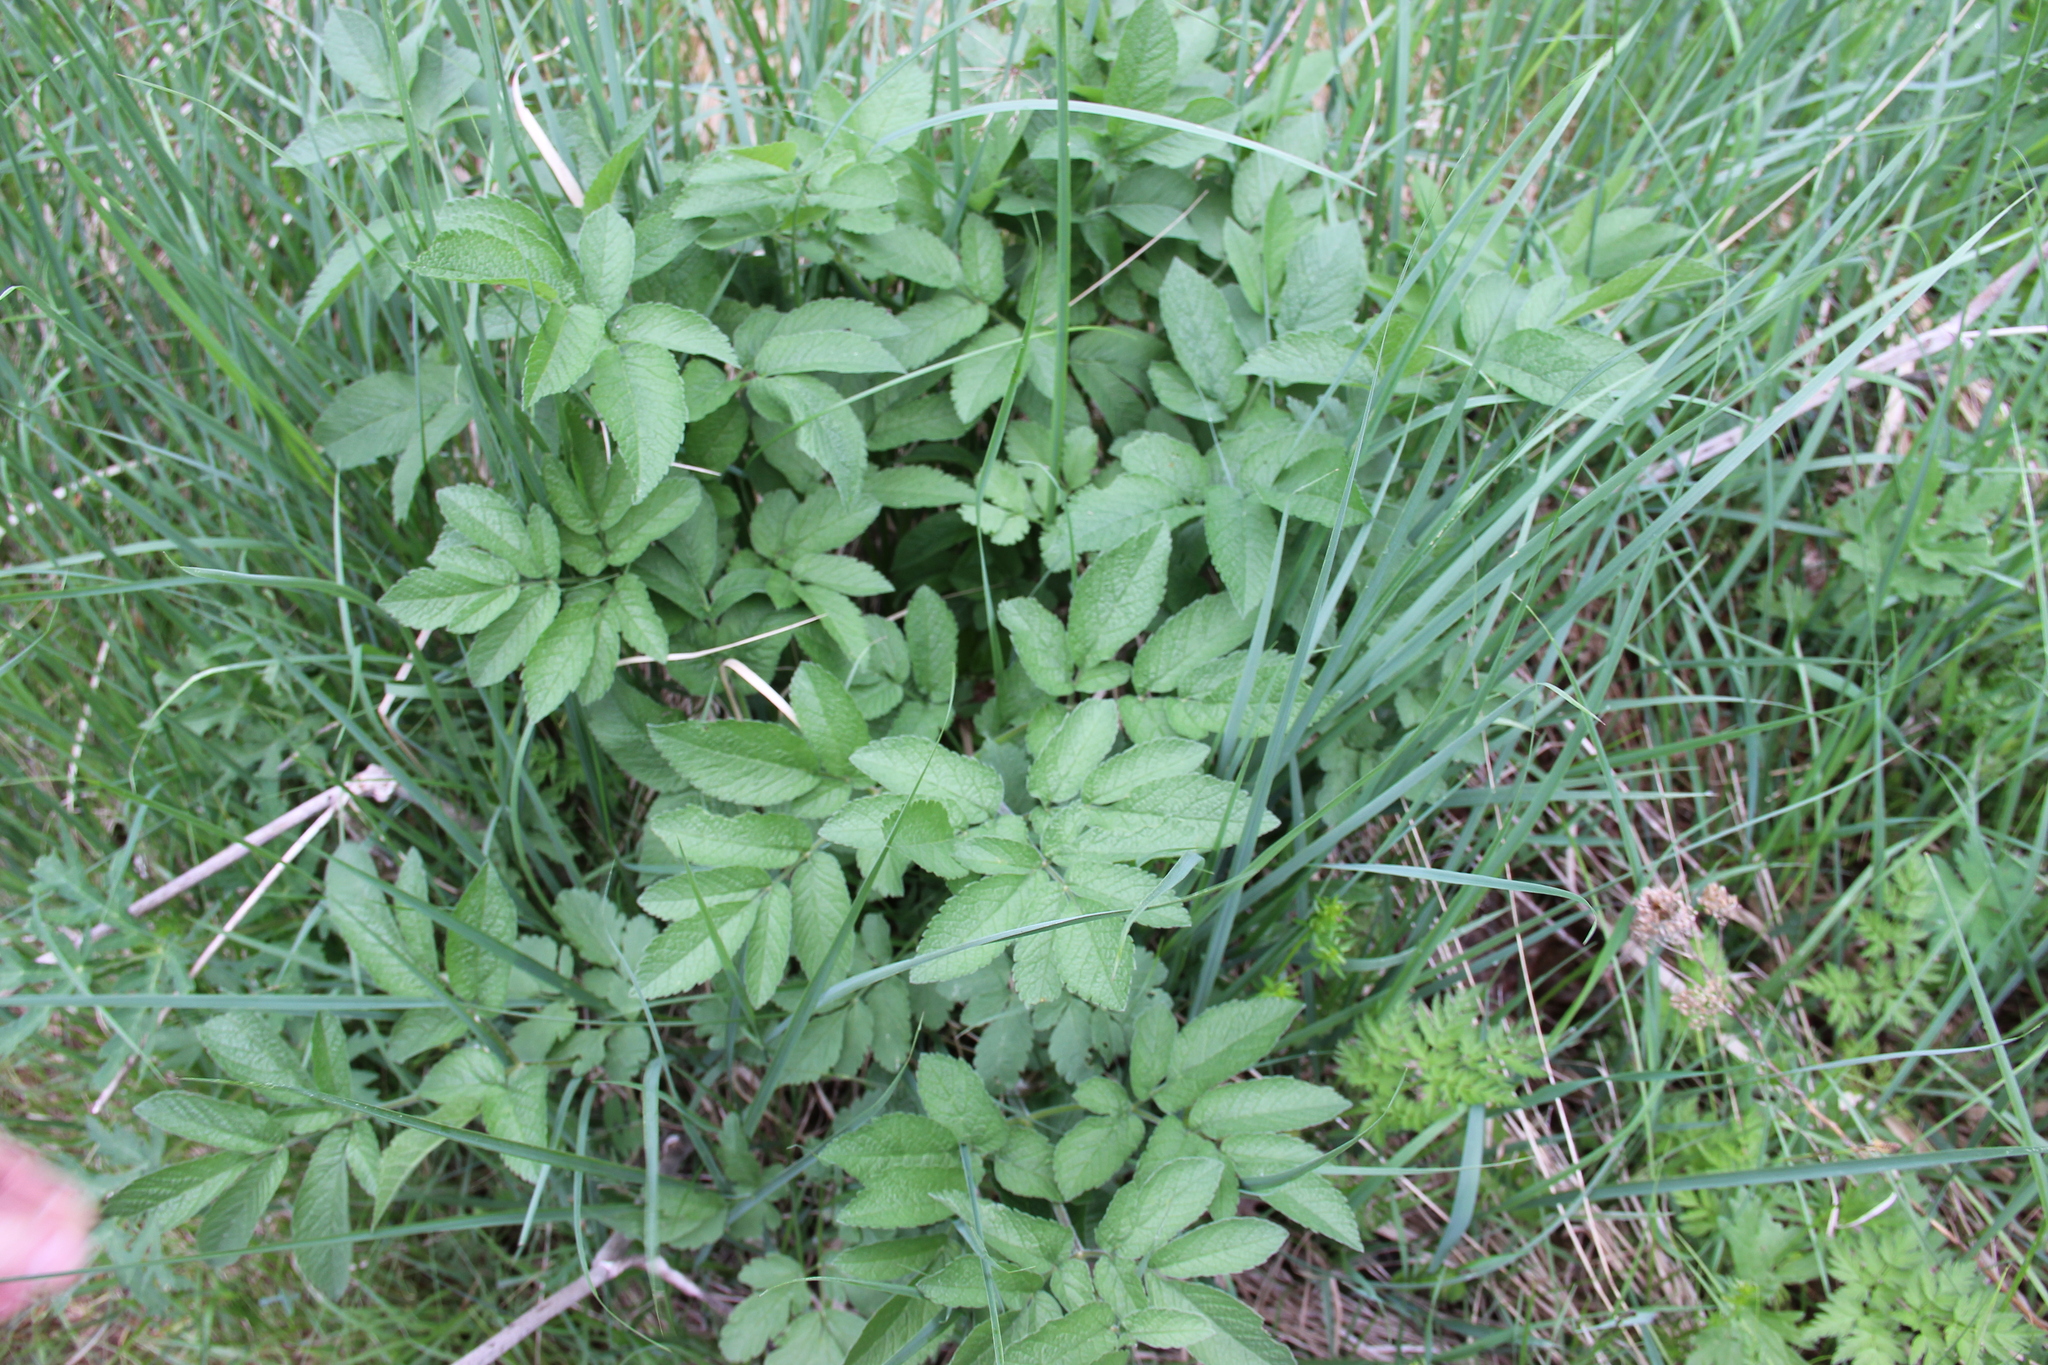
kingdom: Plantae
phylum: Tracheophyta
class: Magnoliopsida
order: Apiales
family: Apiaceae
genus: Chaerophyllum
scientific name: Chaerophyllum aromaticum
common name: Broadleaf chervil
